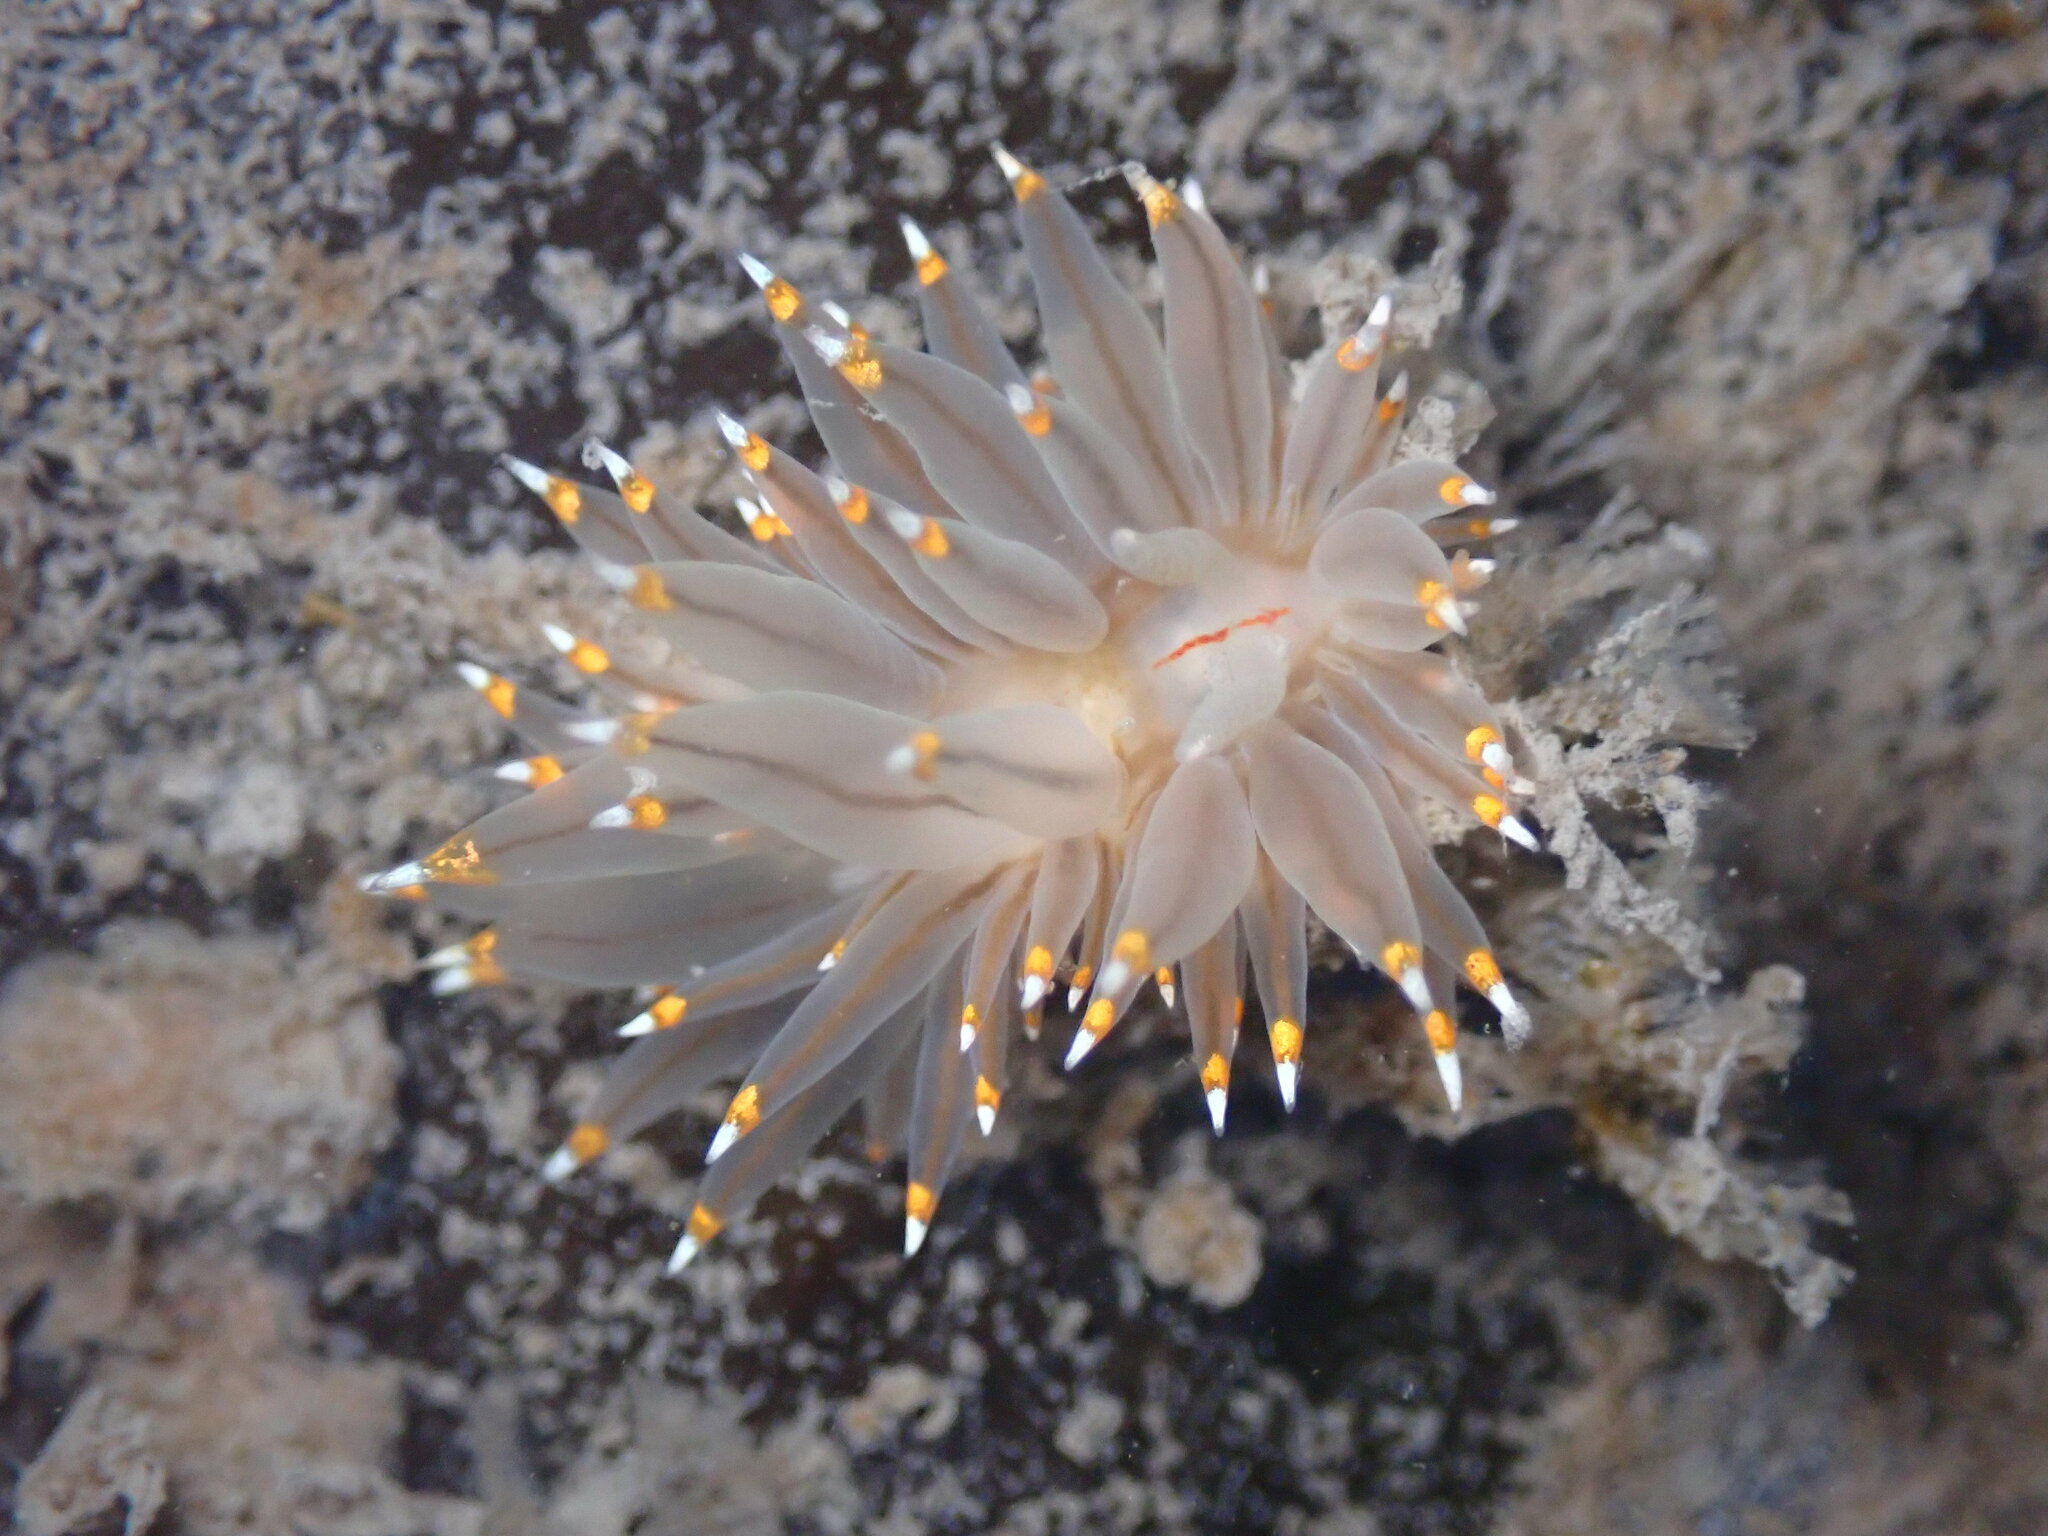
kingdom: Animalia
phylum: Mollusca
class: Gastropoda
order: Nudibranchia
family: Janolidae
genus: Antiopella
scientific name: Antiopella fusca
